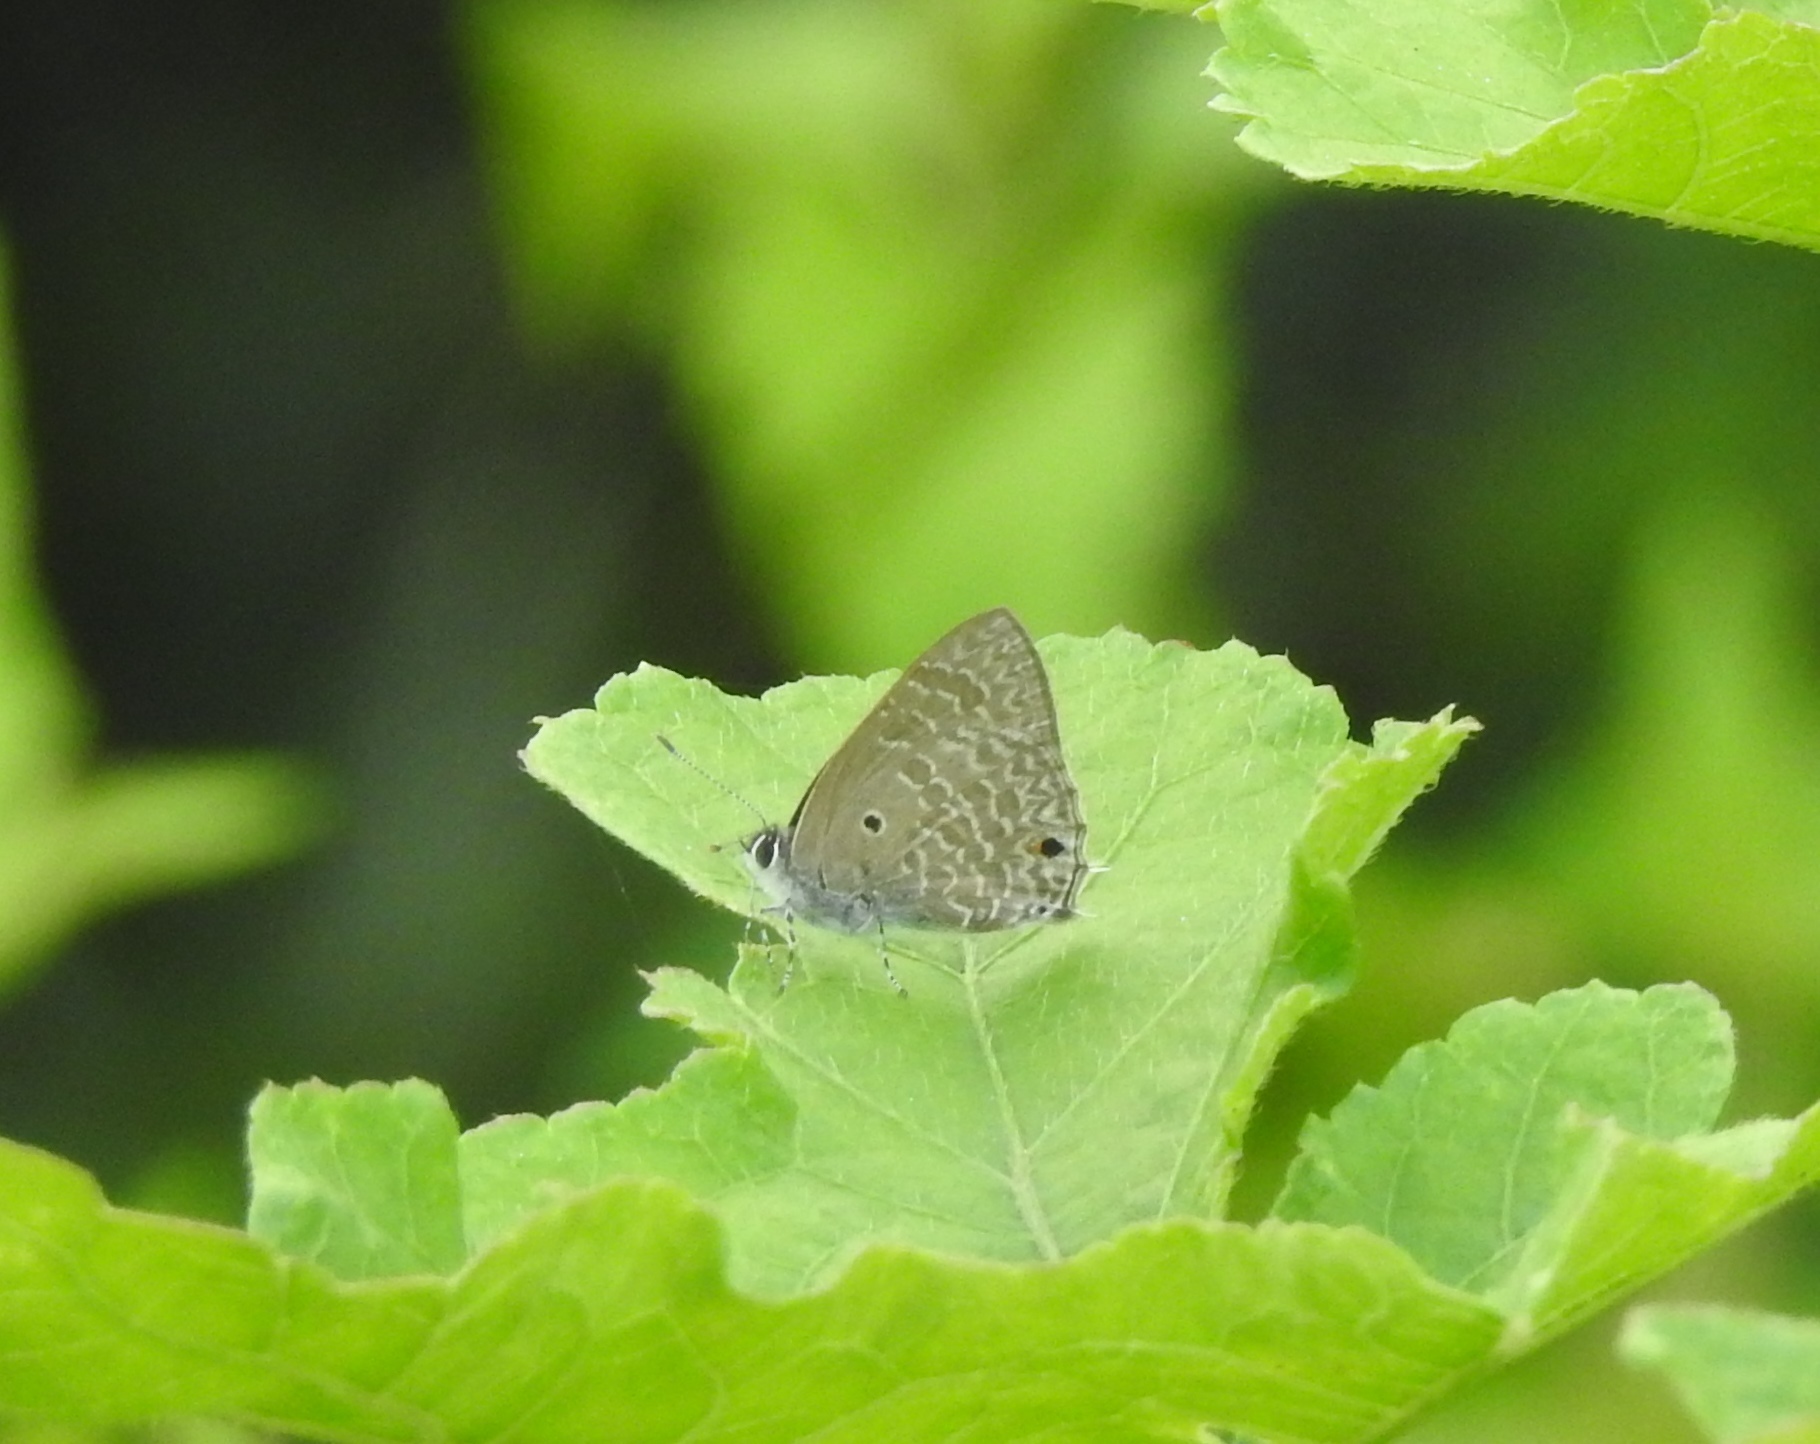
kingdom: Animalia
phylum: Arthropoda
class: Insecta
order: Lepidoptera
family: Lycaenidae
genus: Anthene
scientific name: Anthene lycaenina
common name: Pointed ciliate blue
